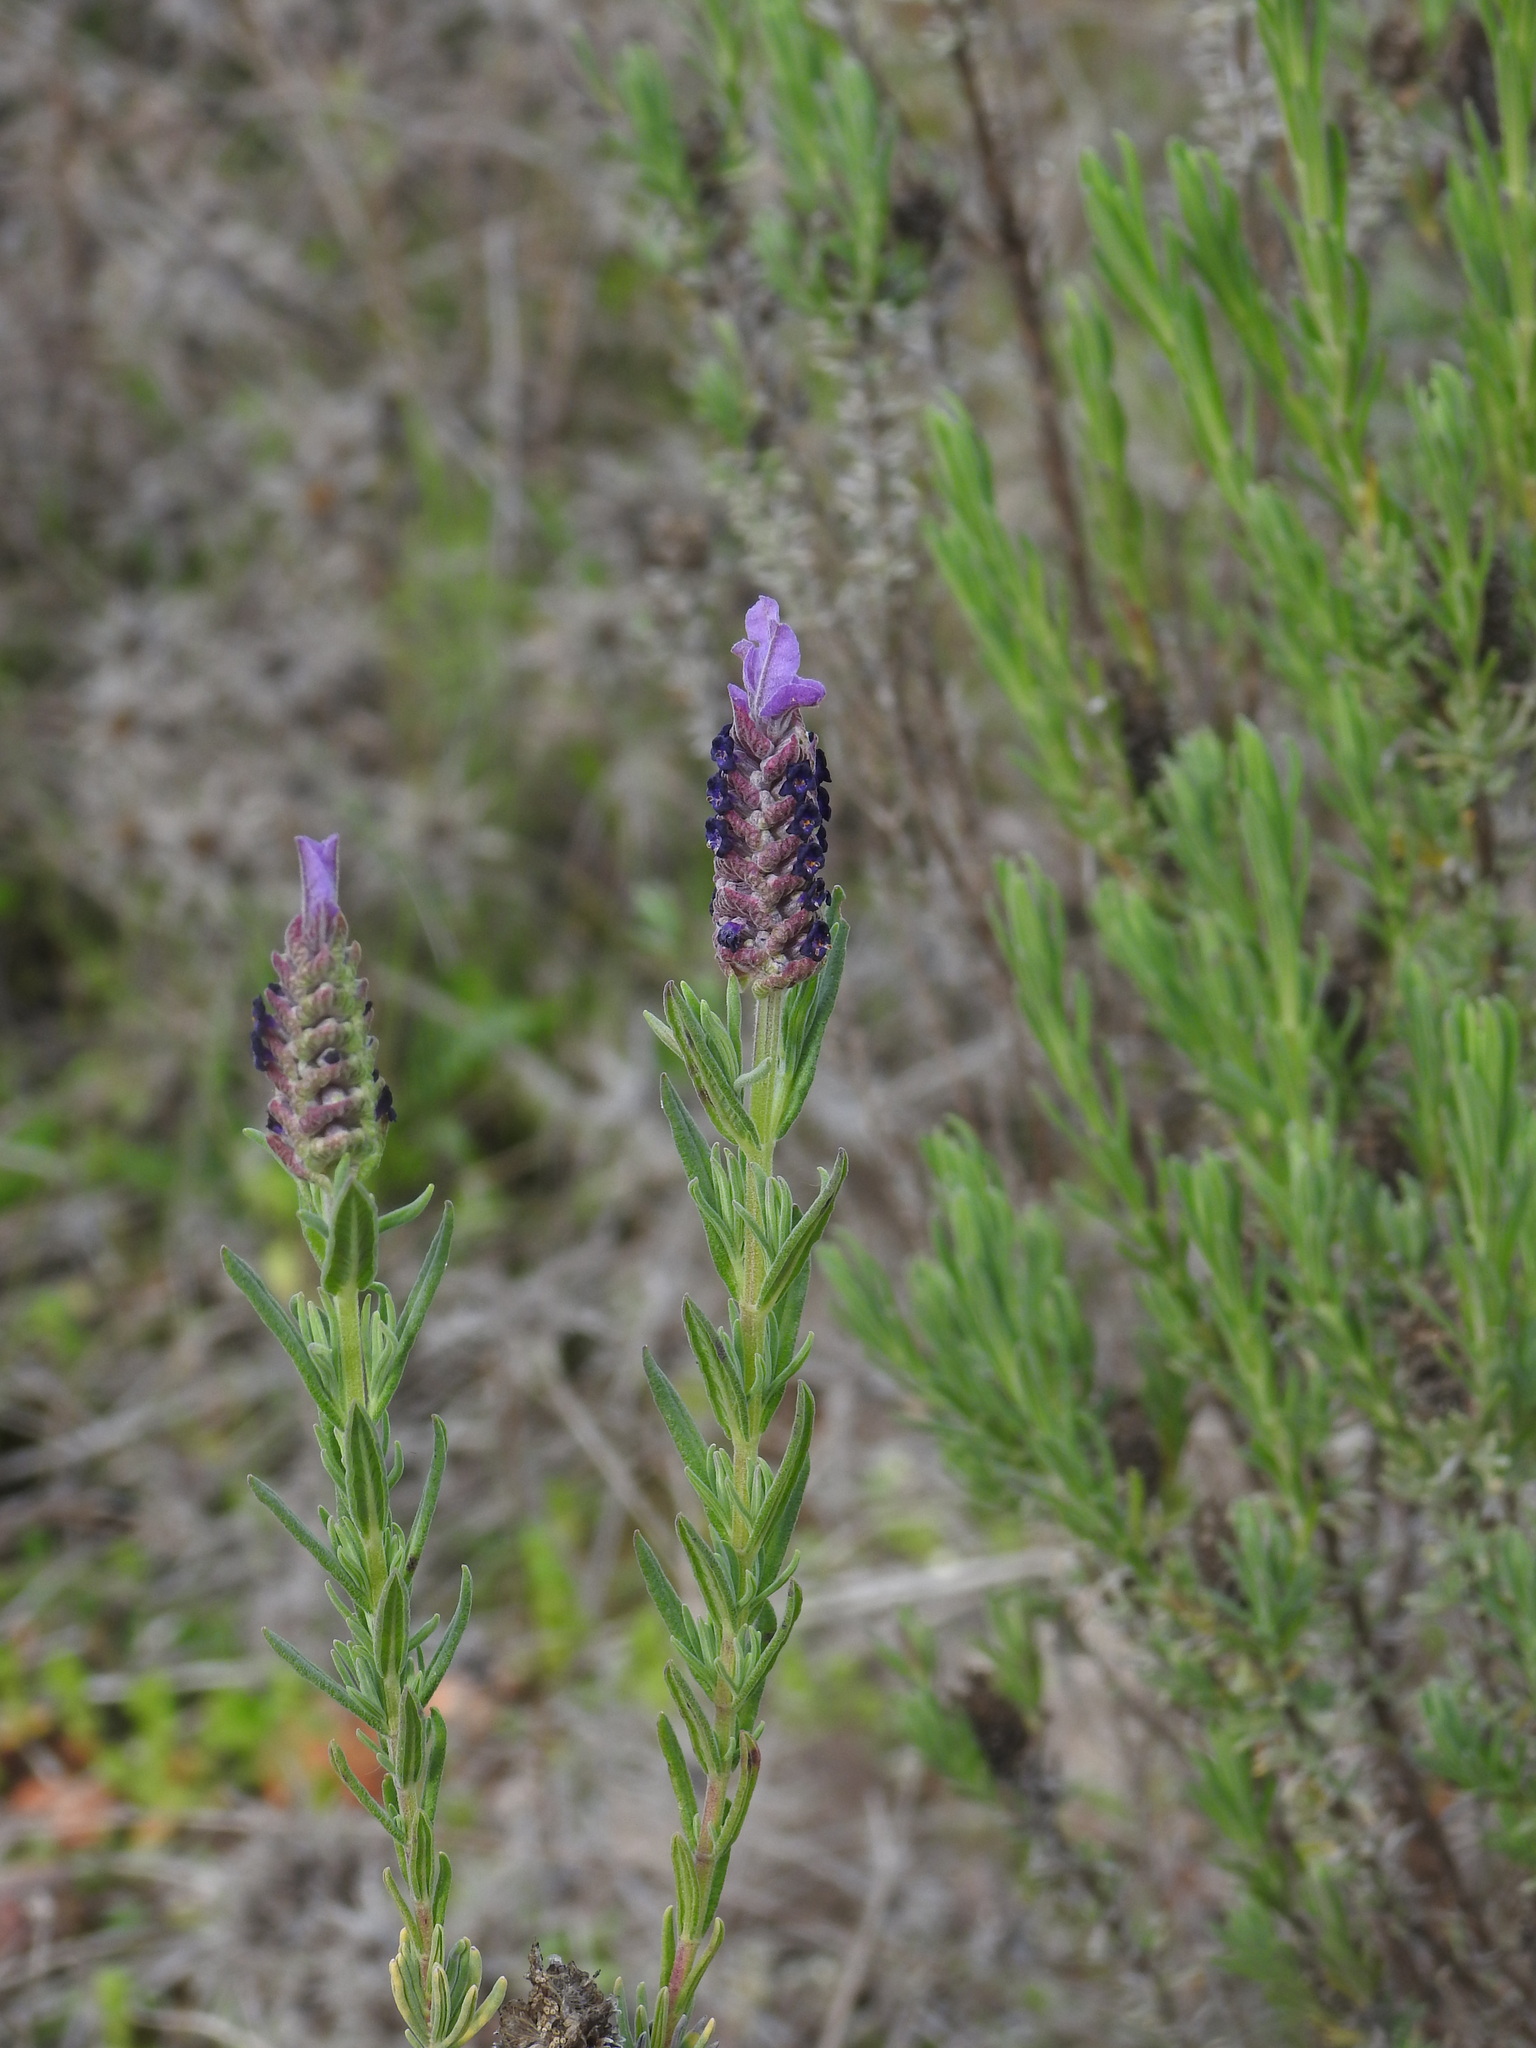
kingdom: Plantae
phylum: Tracheophyta
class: Magnoliopsida
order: Lamiales
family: Lamiaceae
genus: Lavandula
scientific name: Lavandula stoechas
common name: French lavender
